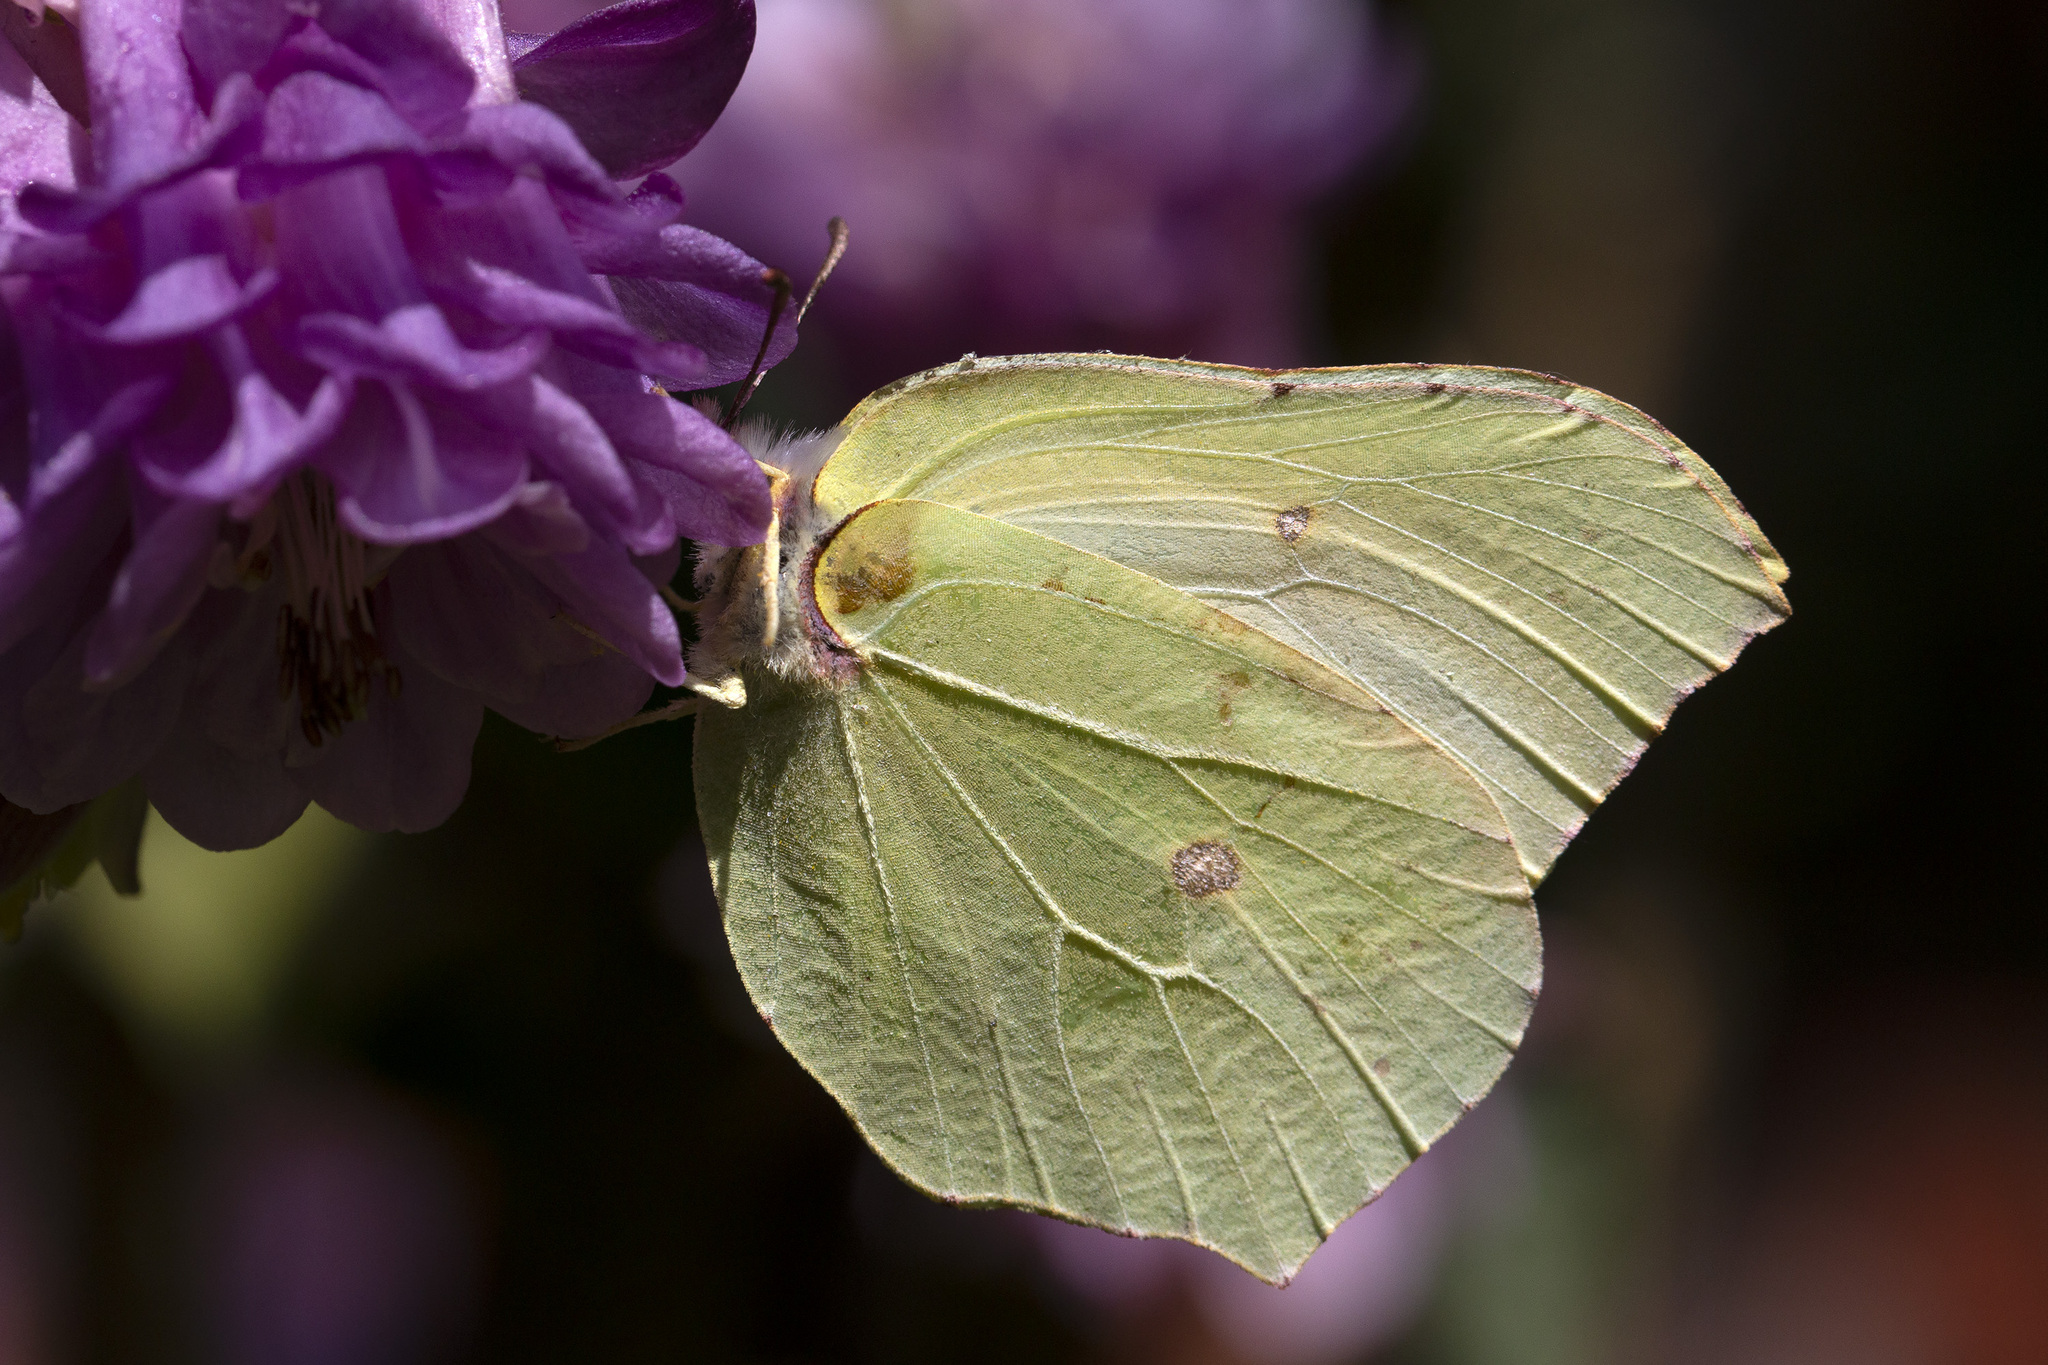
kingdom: Animalia
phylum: Arthropoda
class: Insecta
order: Lepidoptera
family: Pieridae
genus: Gonepteryx
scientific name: Gonepteryx rhamni
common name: Brimstone
